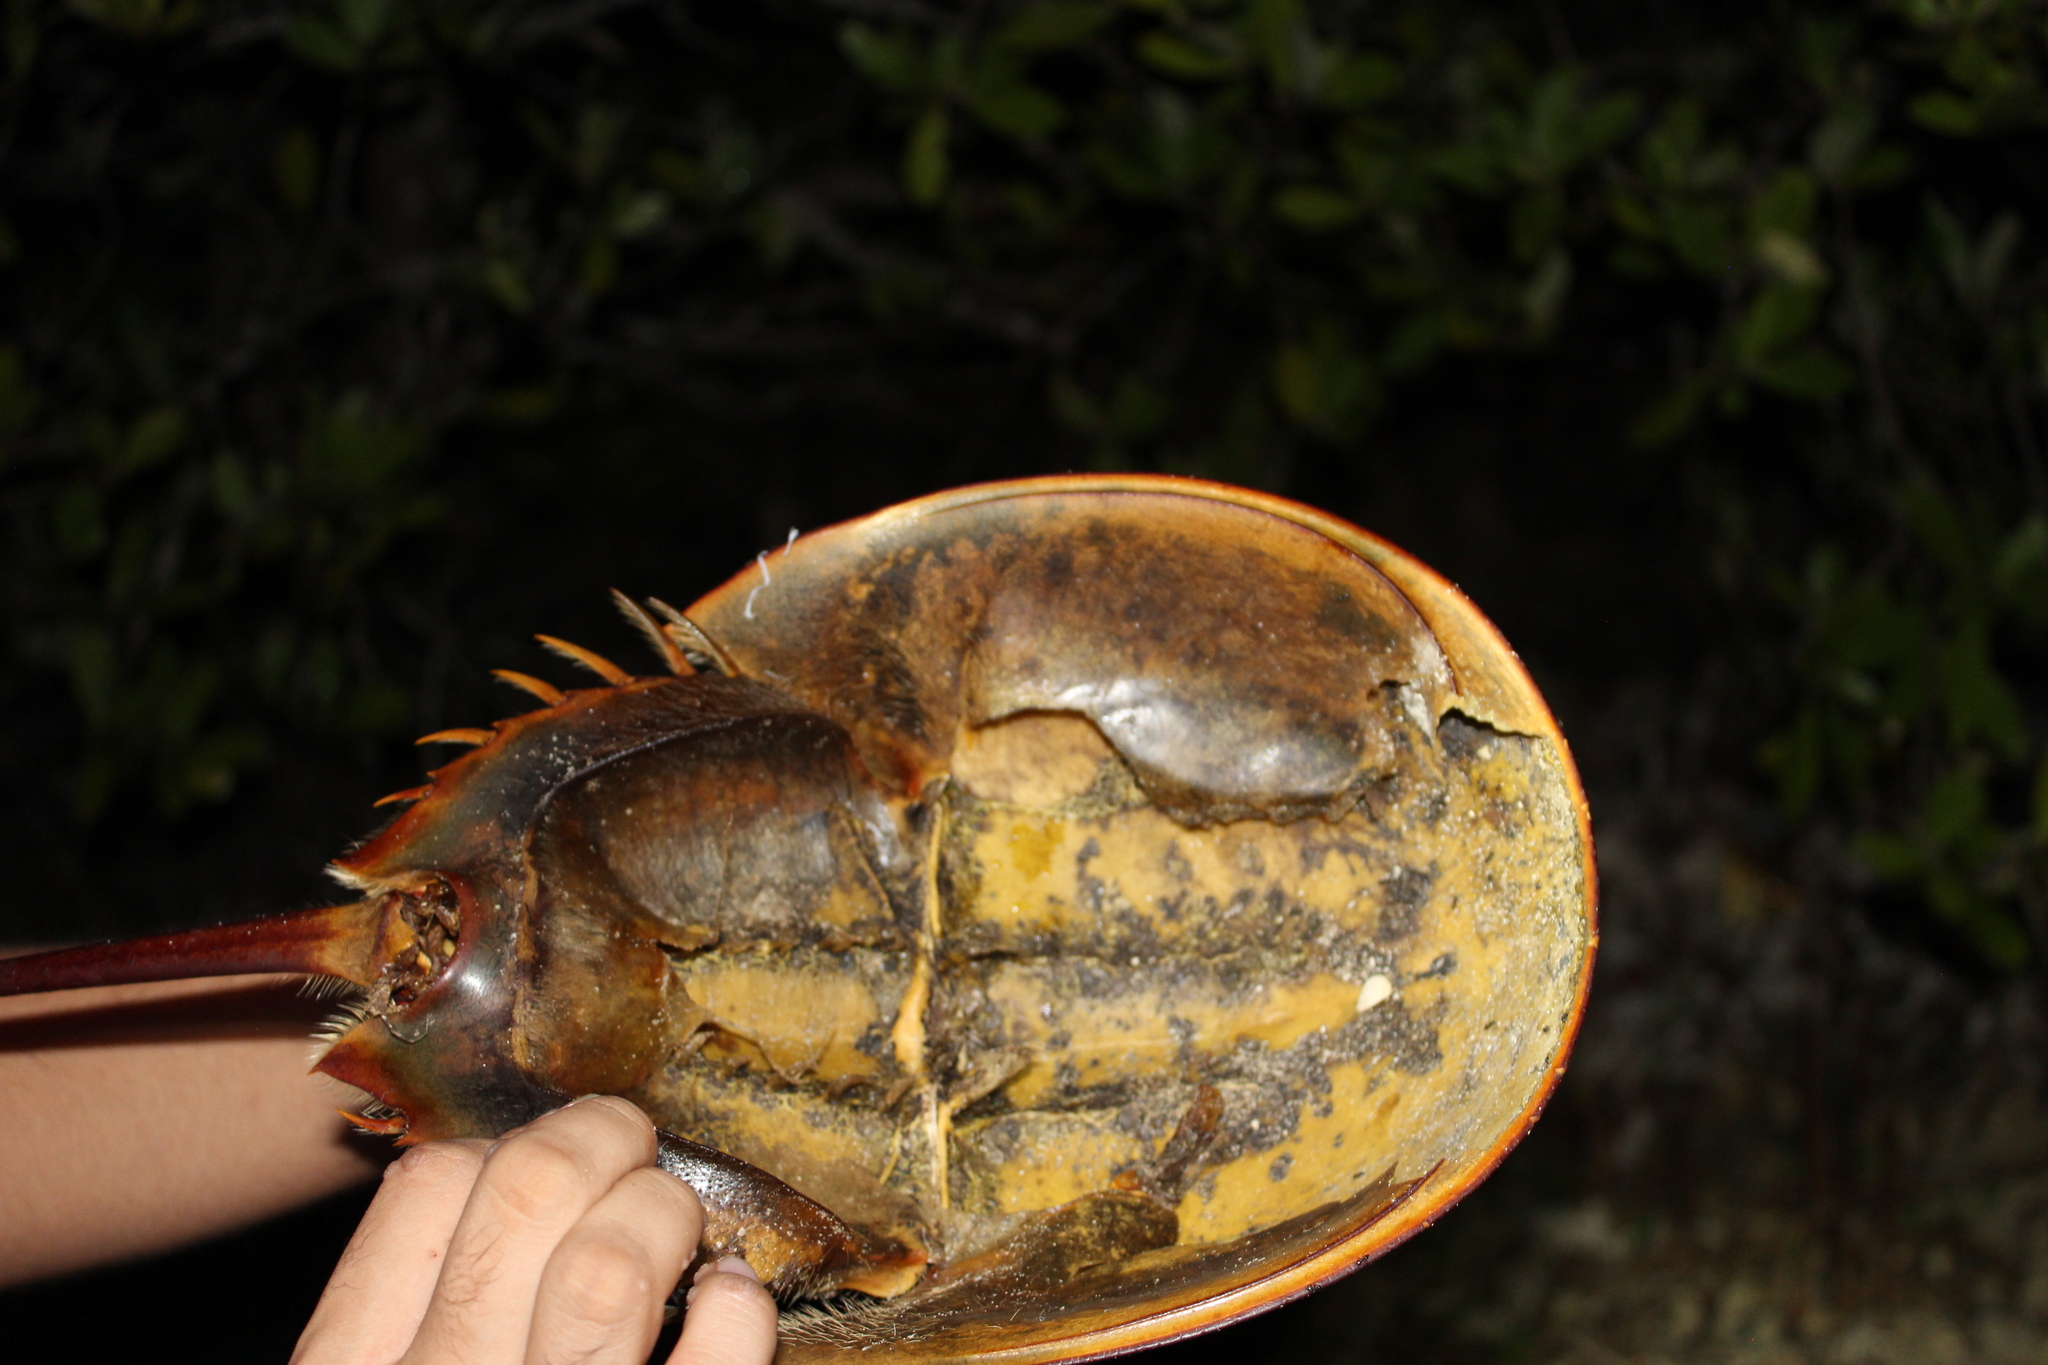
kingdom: Animalia
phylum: Arthropoda
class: Merostomata
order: Xiphosurida
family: Limulidae
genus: Limulus
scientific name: Limulus polyphemus
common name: Horseshoe crab
